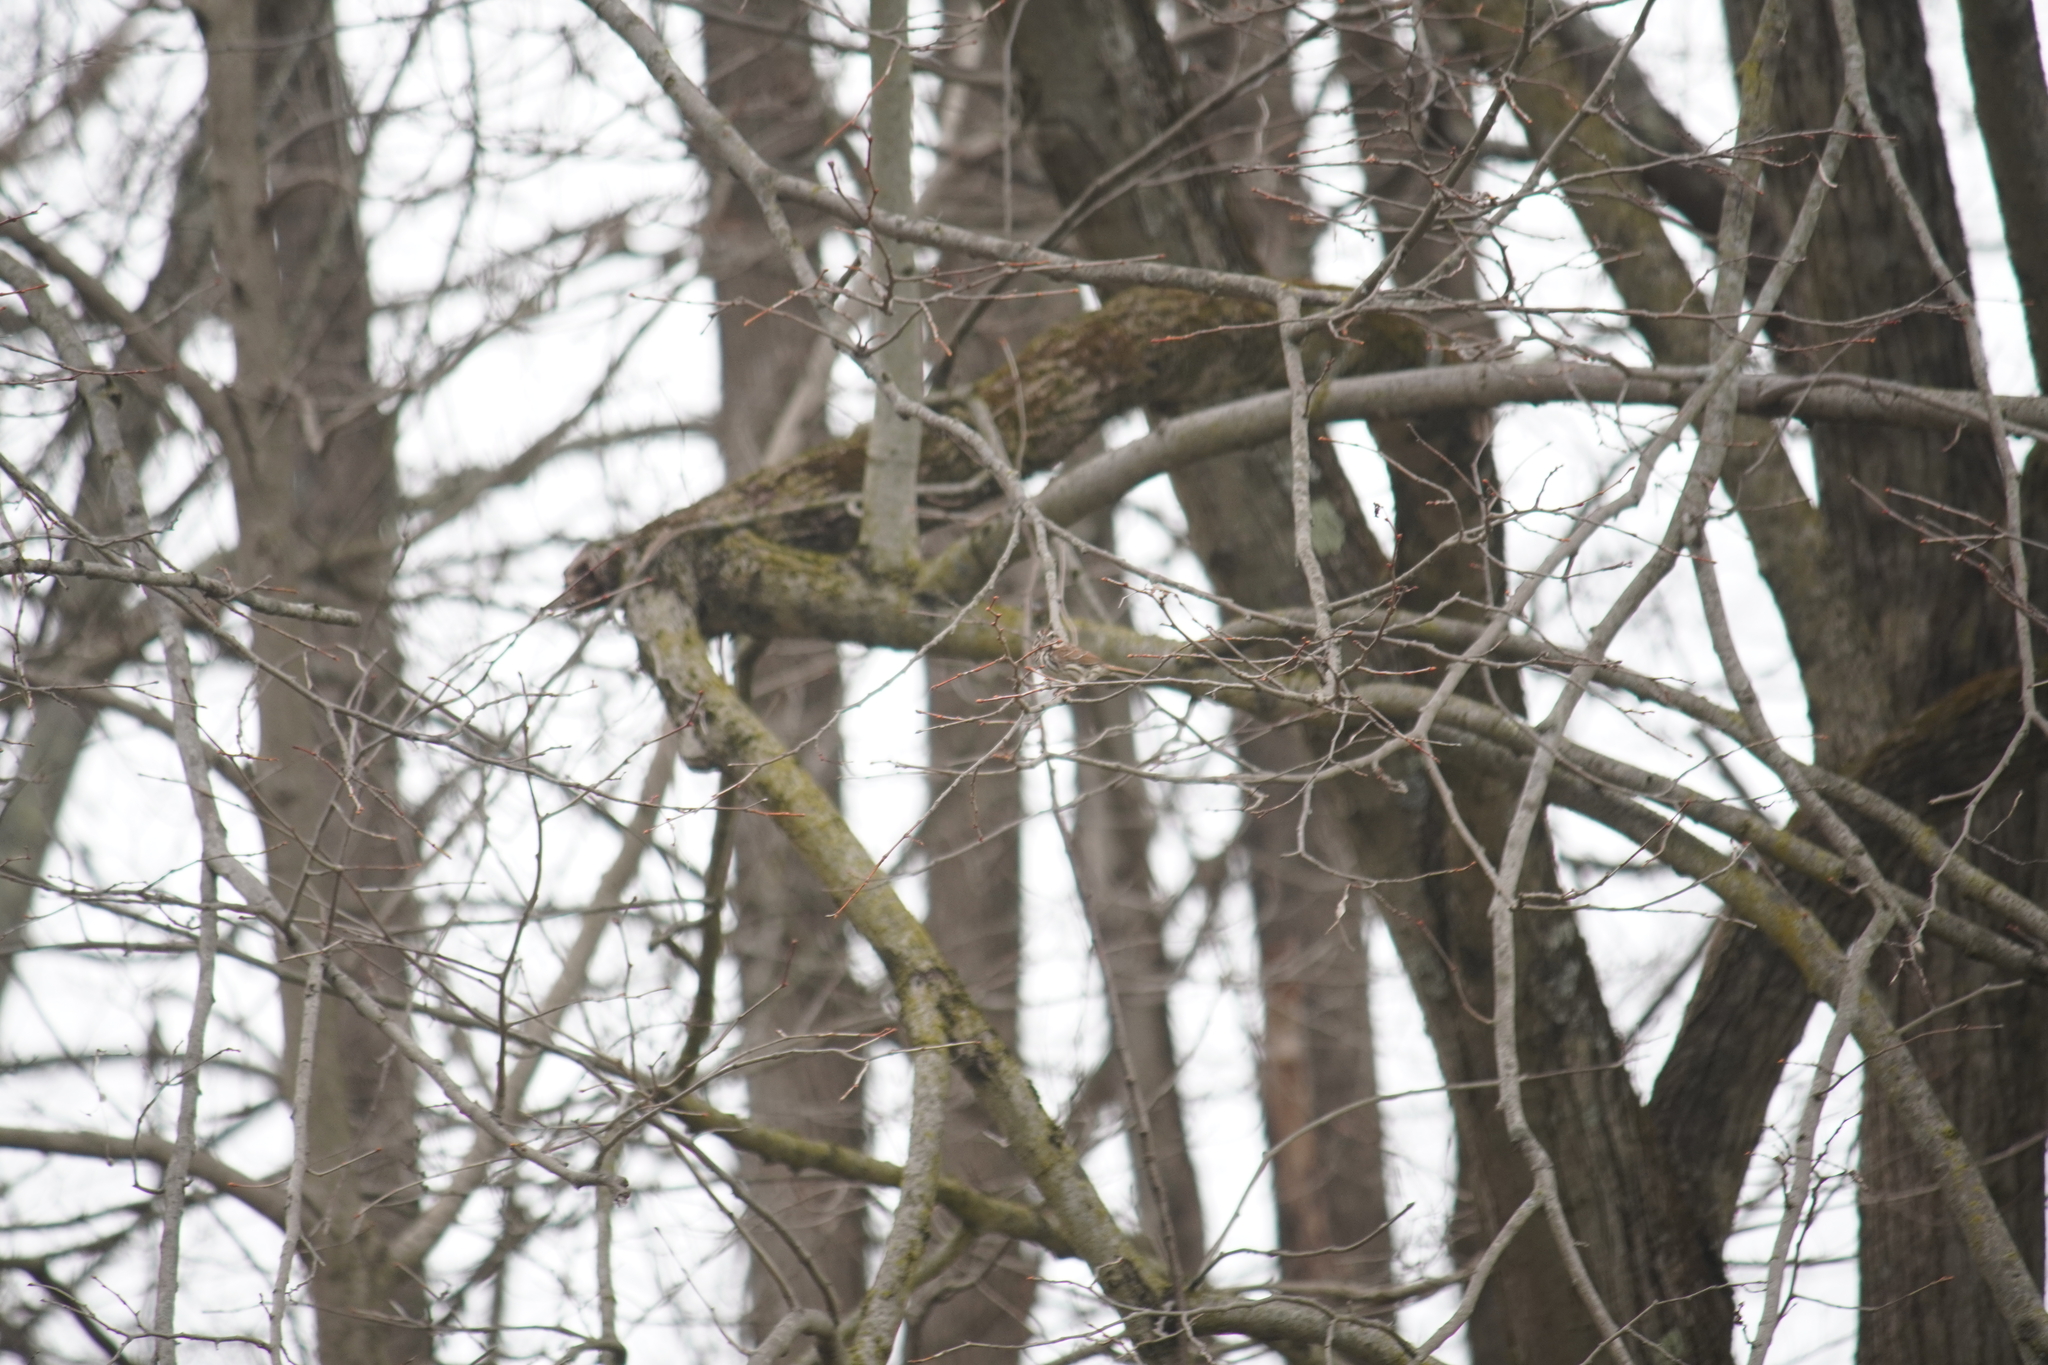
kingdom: Animalia
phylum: Chordata
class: Aves
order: Passeriformes
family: Passerellidae
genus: Melospiza
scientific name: Melospiza melodia
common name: Song sparrow
